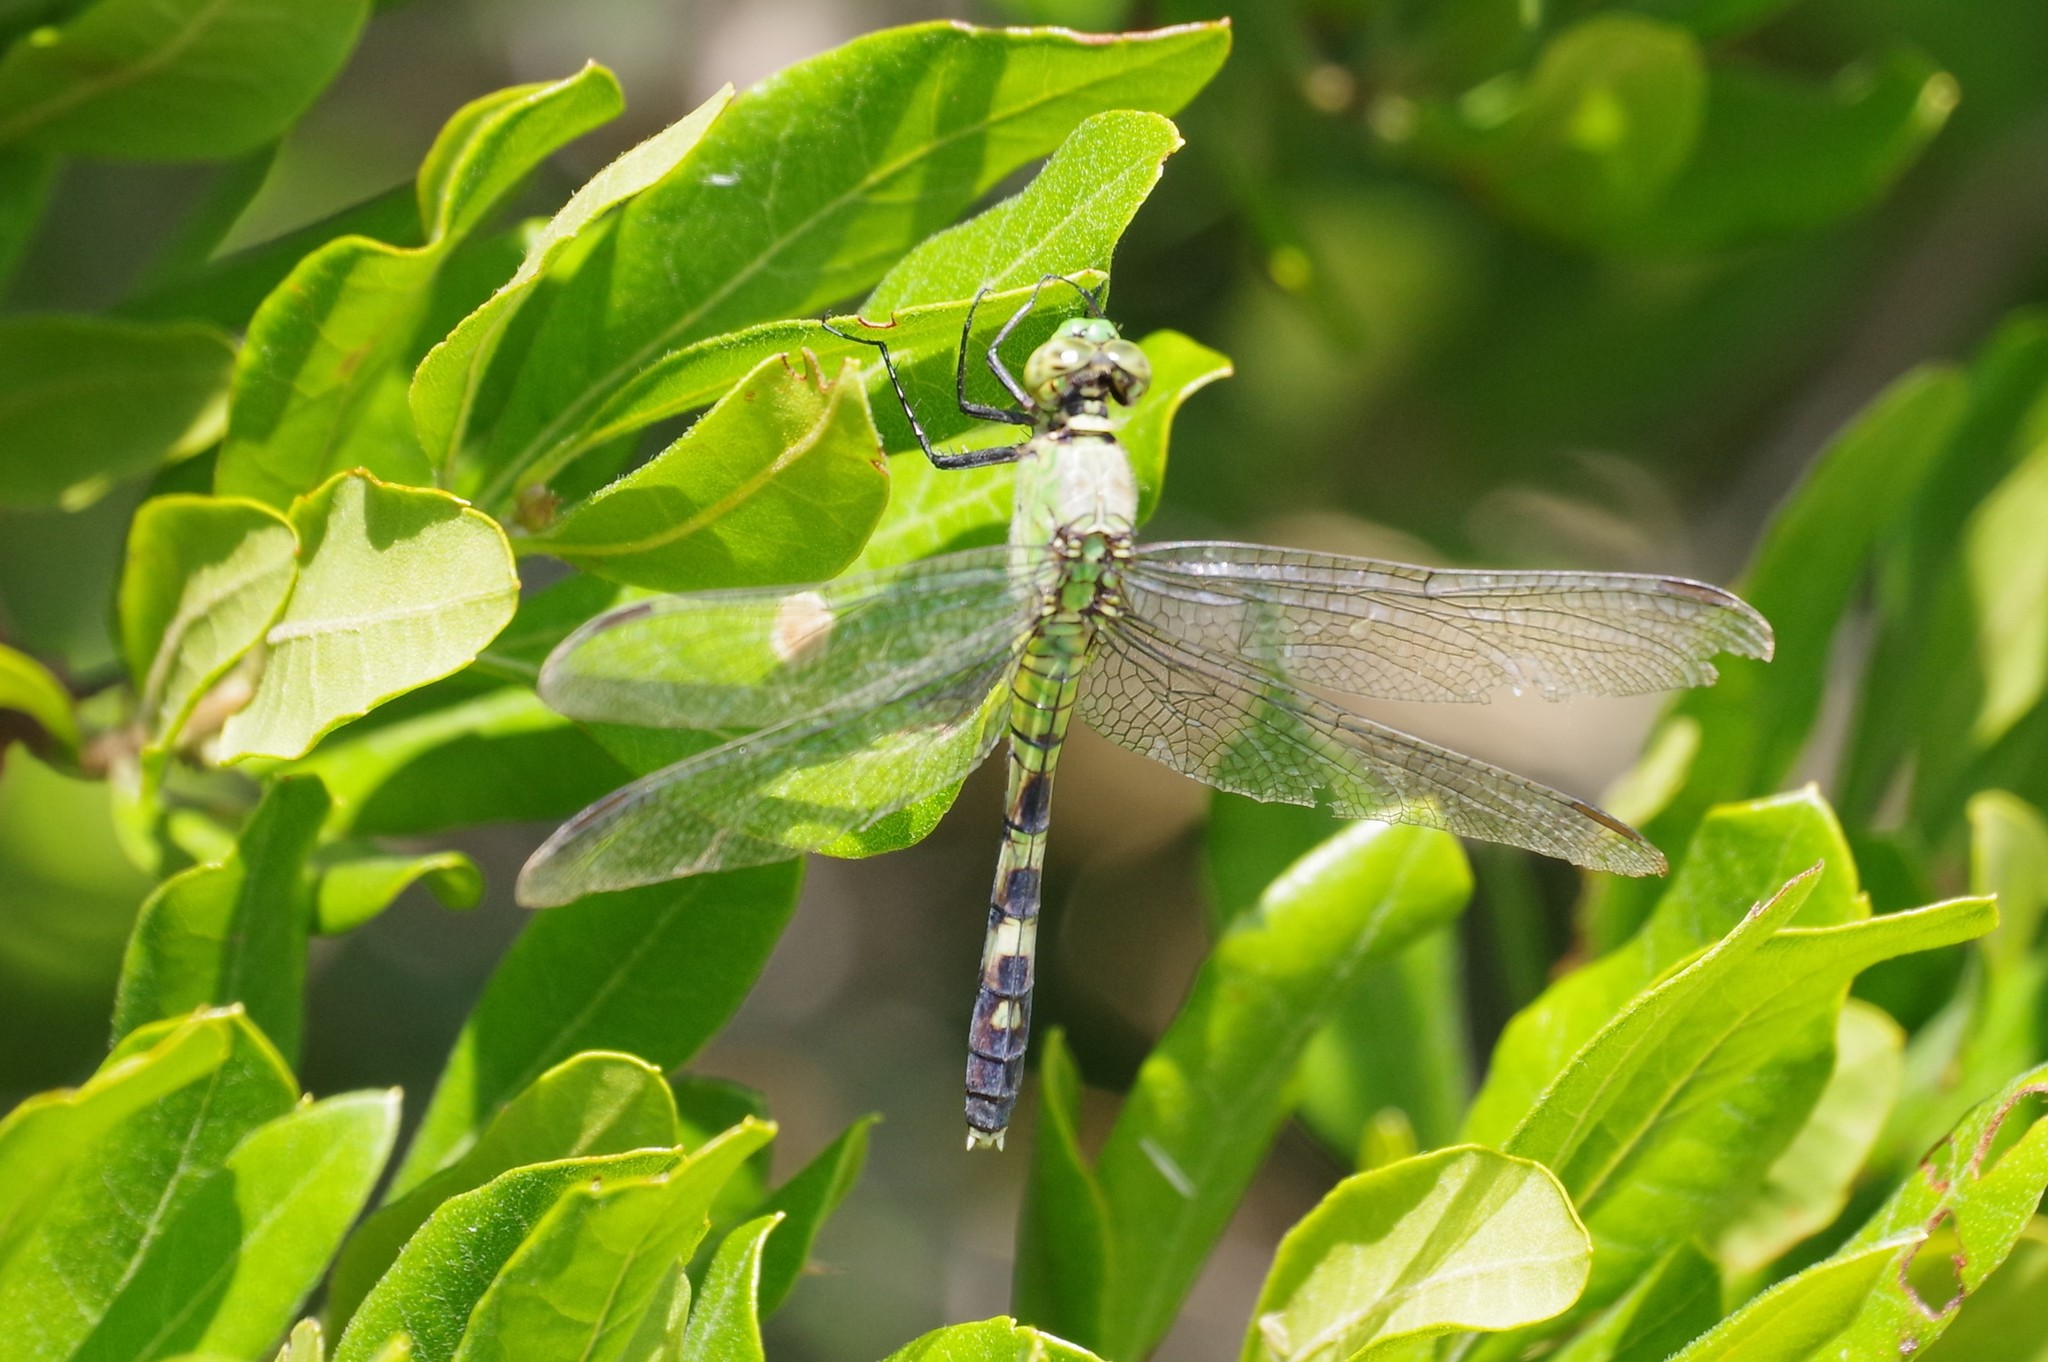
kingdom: Animalia
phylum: Arthropoda
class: Insecta
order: Odonata
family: Libellulidae
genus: Erythemis
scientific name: Erythemis simplicicollis
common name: Eastern pondhawk
